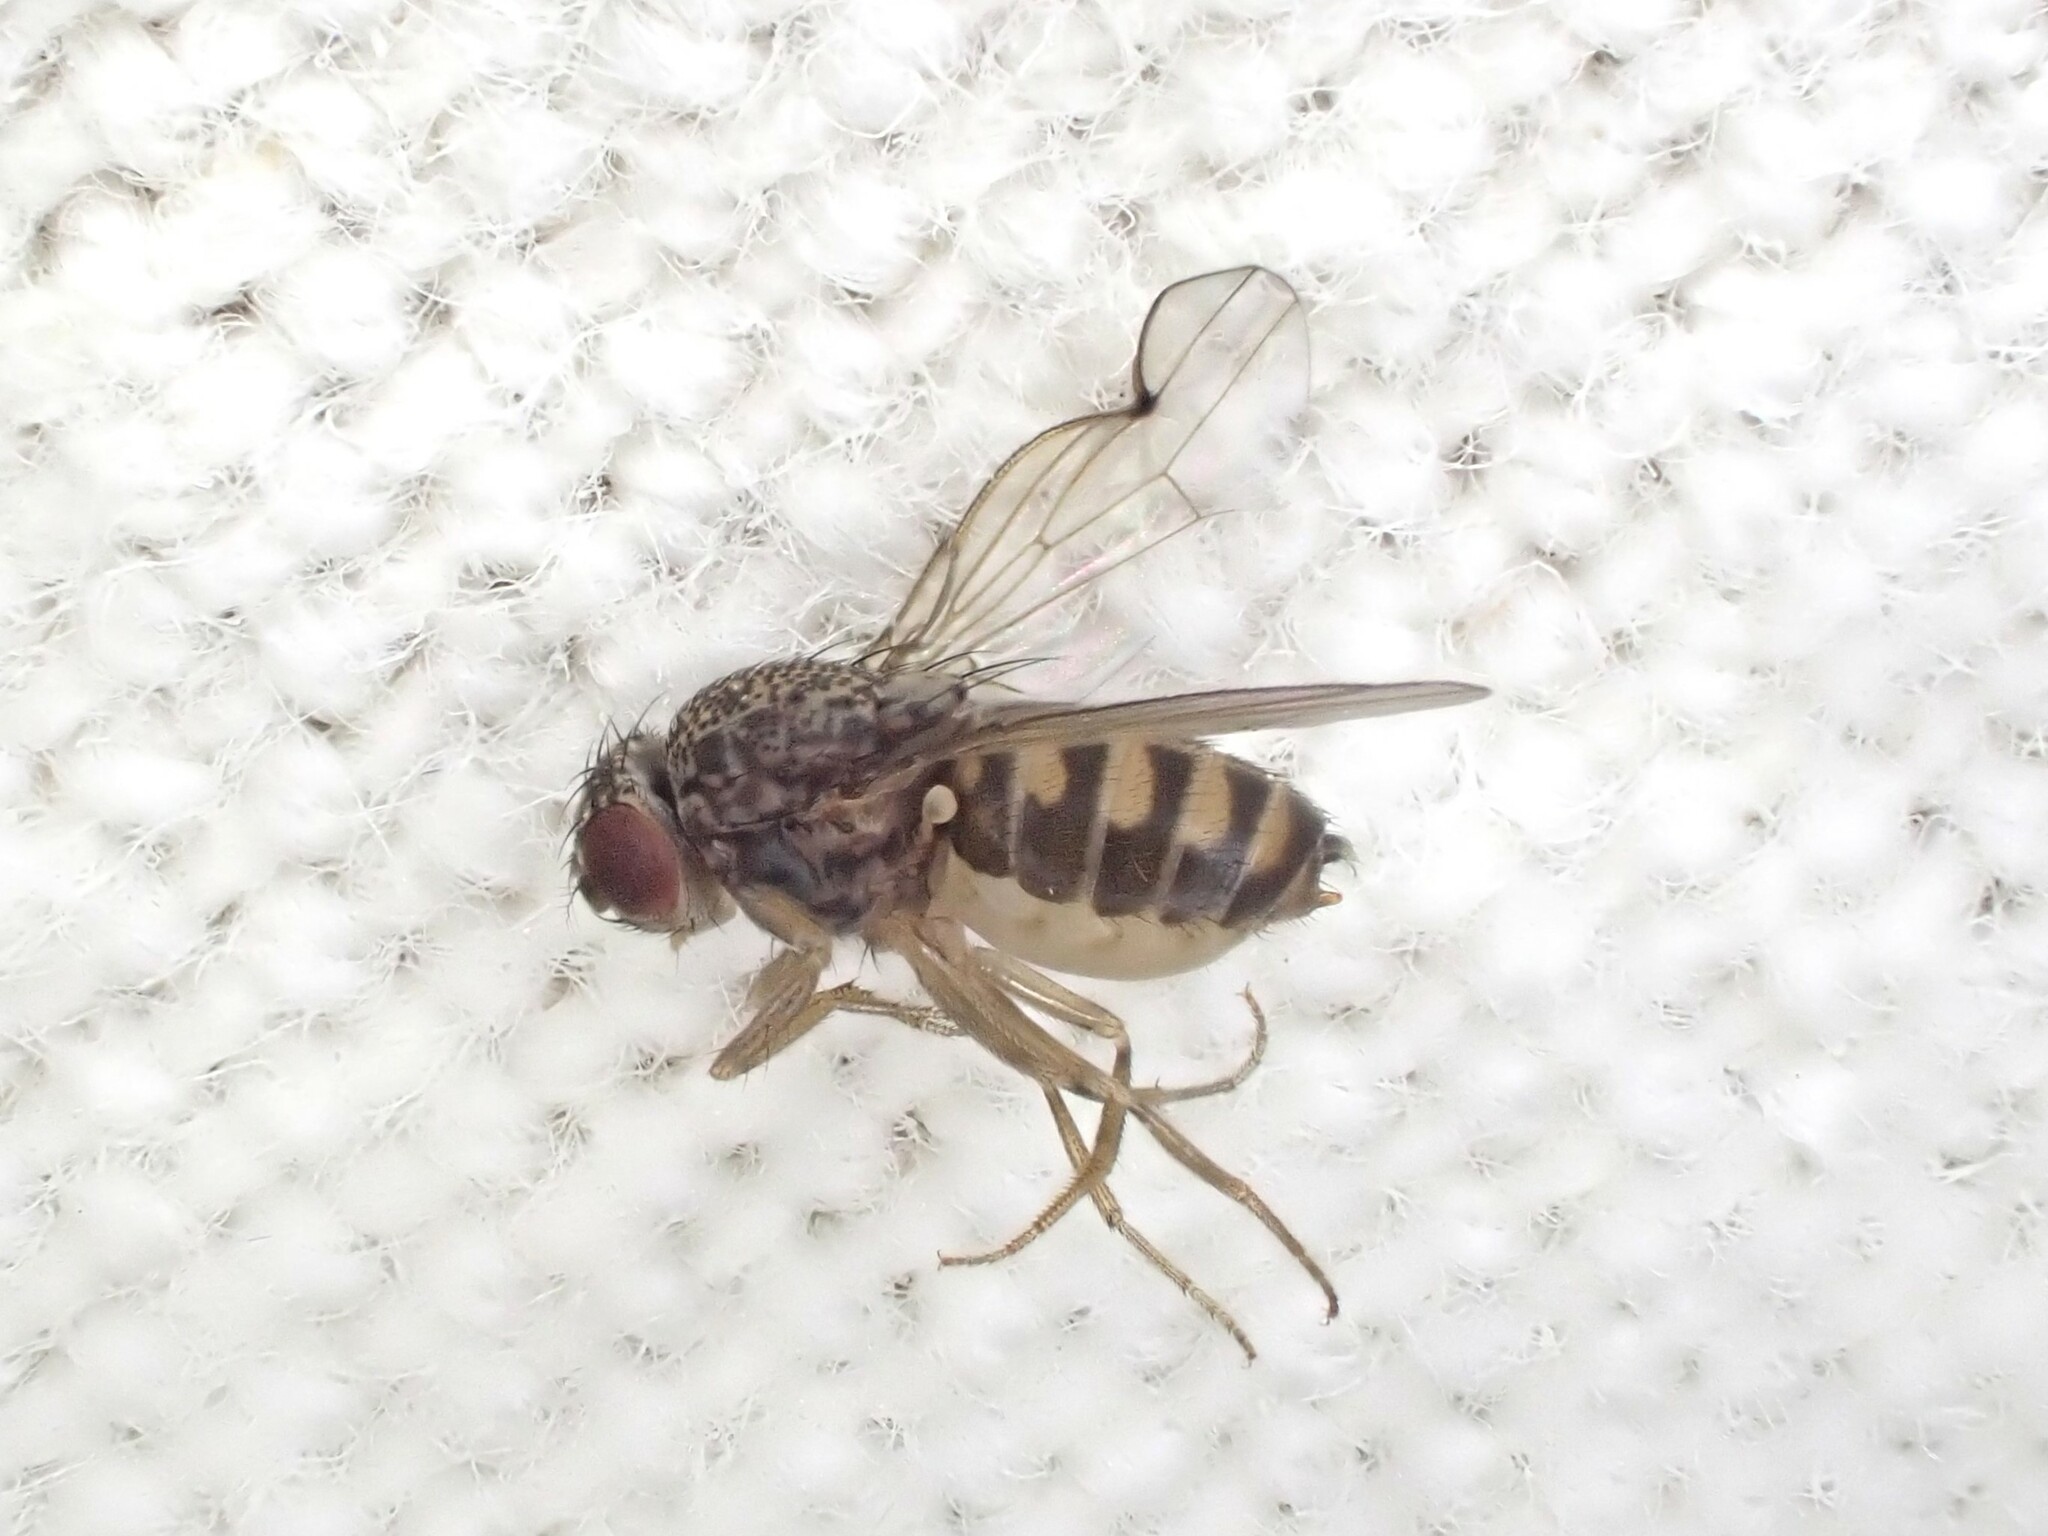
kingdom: Animalia
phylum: Arthropoda
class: Insecta
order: Diptera
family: Drosophilidae
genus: Drosophila
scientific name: Drosophila hydei
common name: Pomace fly
